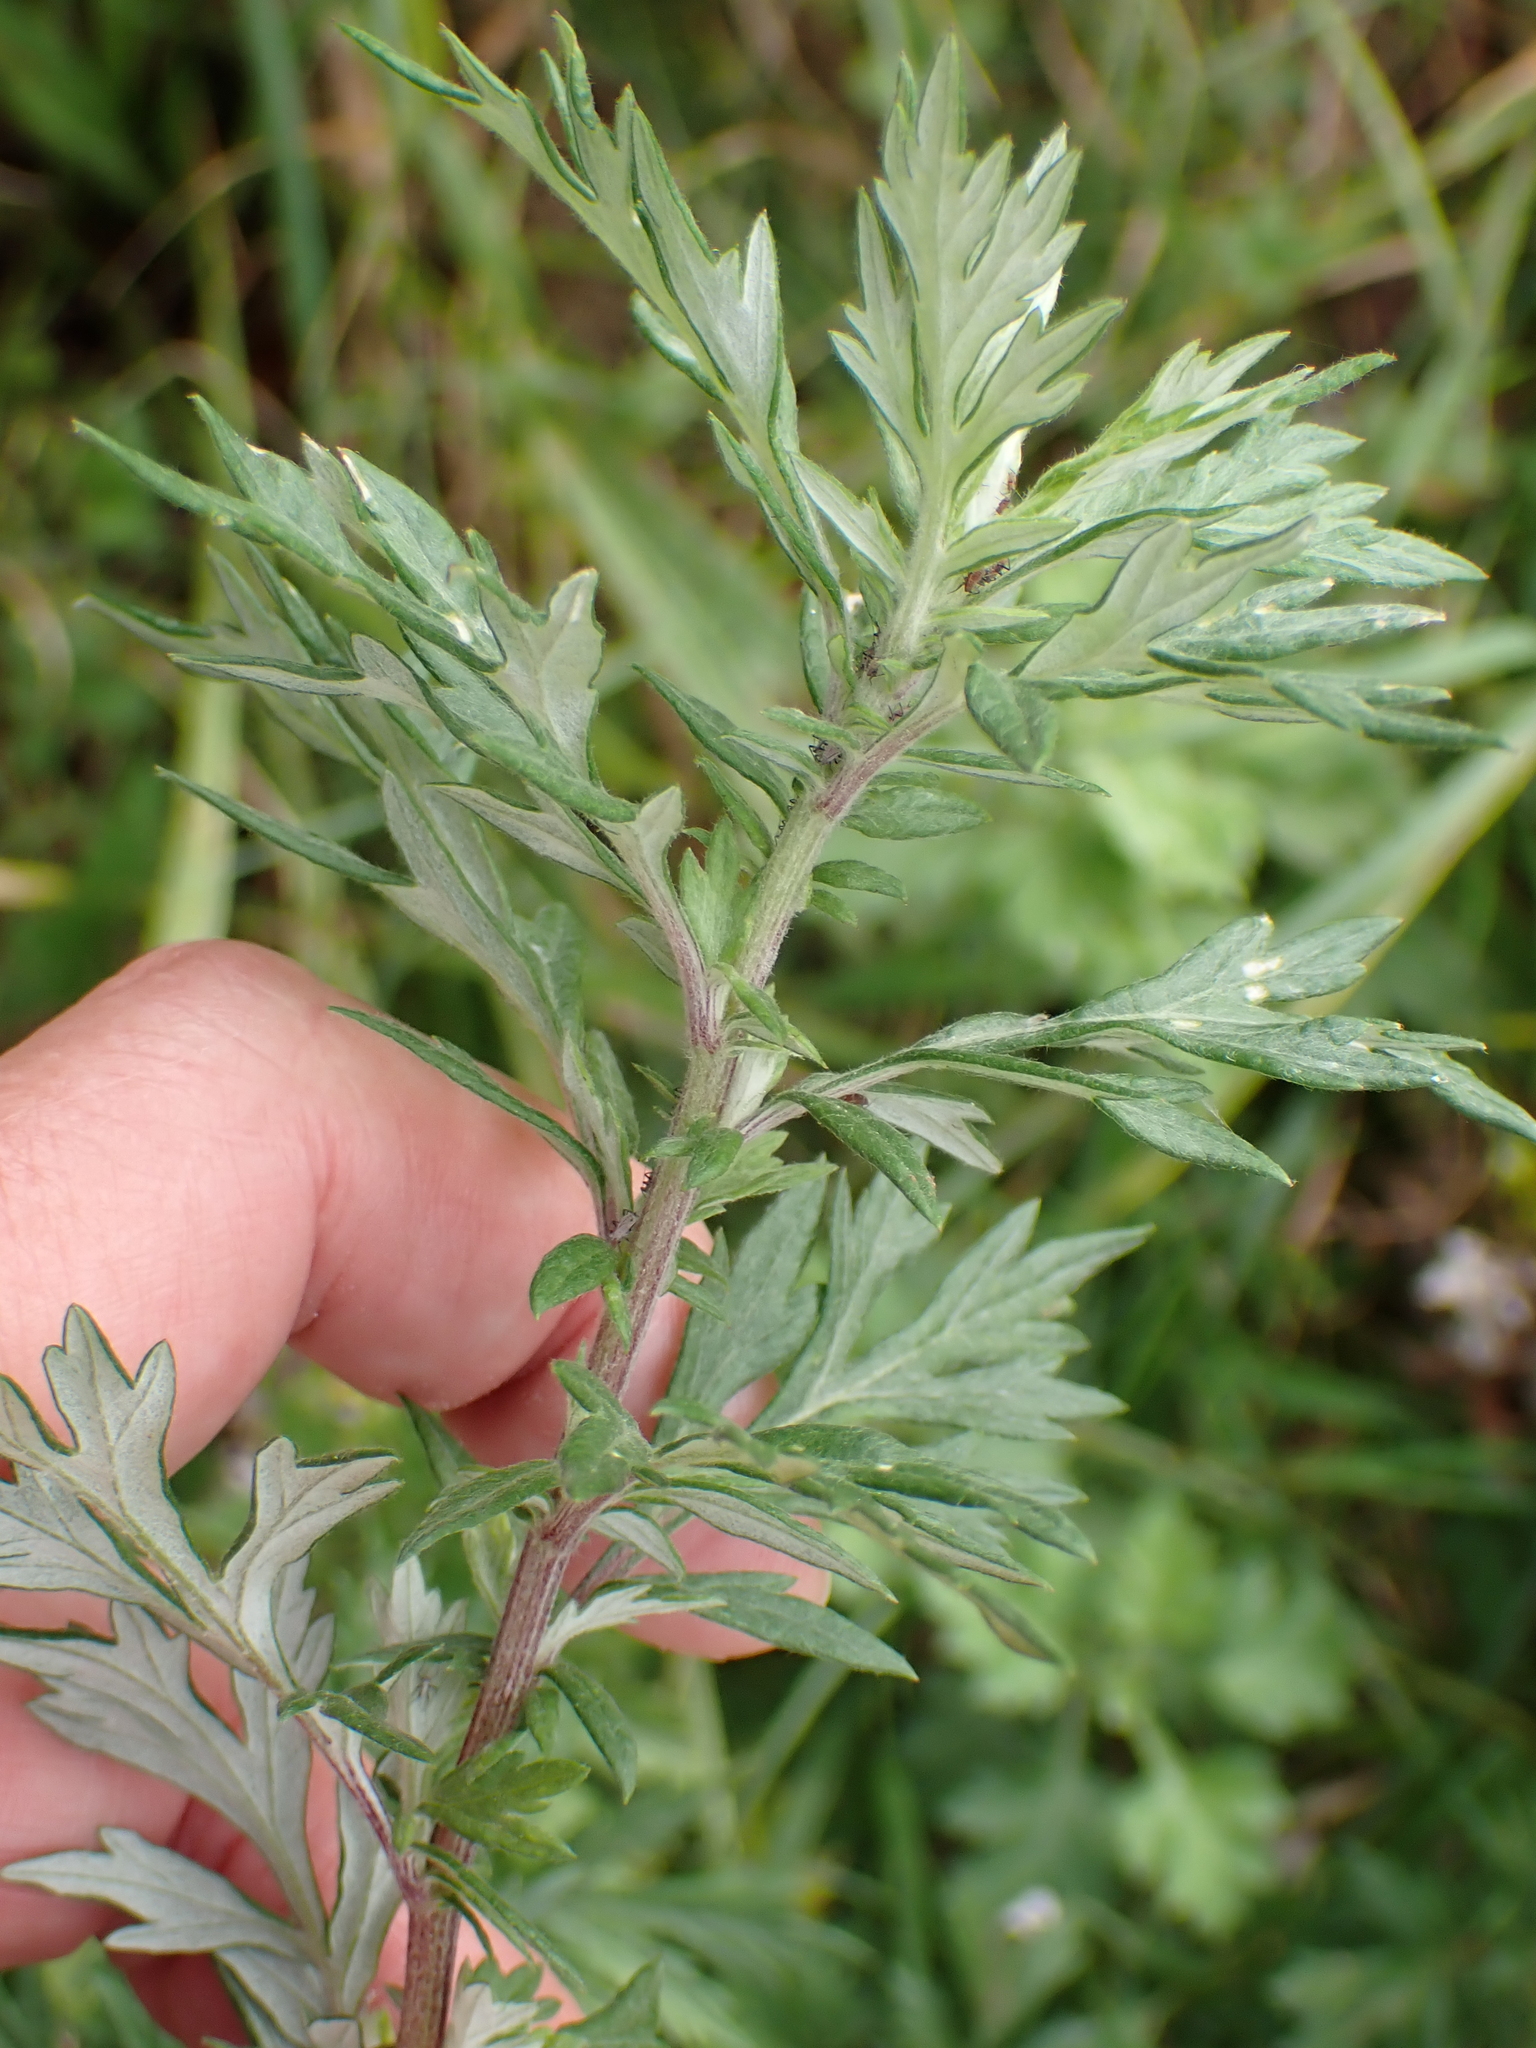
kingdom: Plantae
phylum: Tracheophyta
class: Magnoliopsida
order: Asterales
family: Asteraceae
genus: Artemisia
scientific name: Artemisia vulgaris
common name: Mugwort
